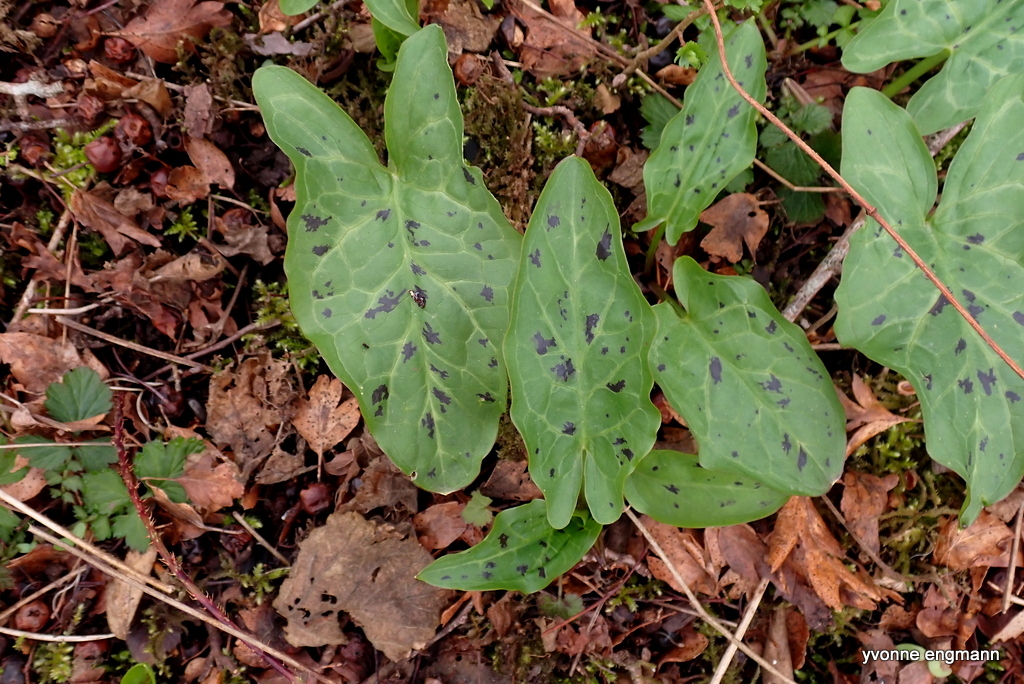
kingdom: Plantae
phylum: Tracheophyta
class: Liliopsida
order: Alismatales
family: Araceae
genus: Arum
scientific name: Arum maculatum
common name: Lords-and-ladies
